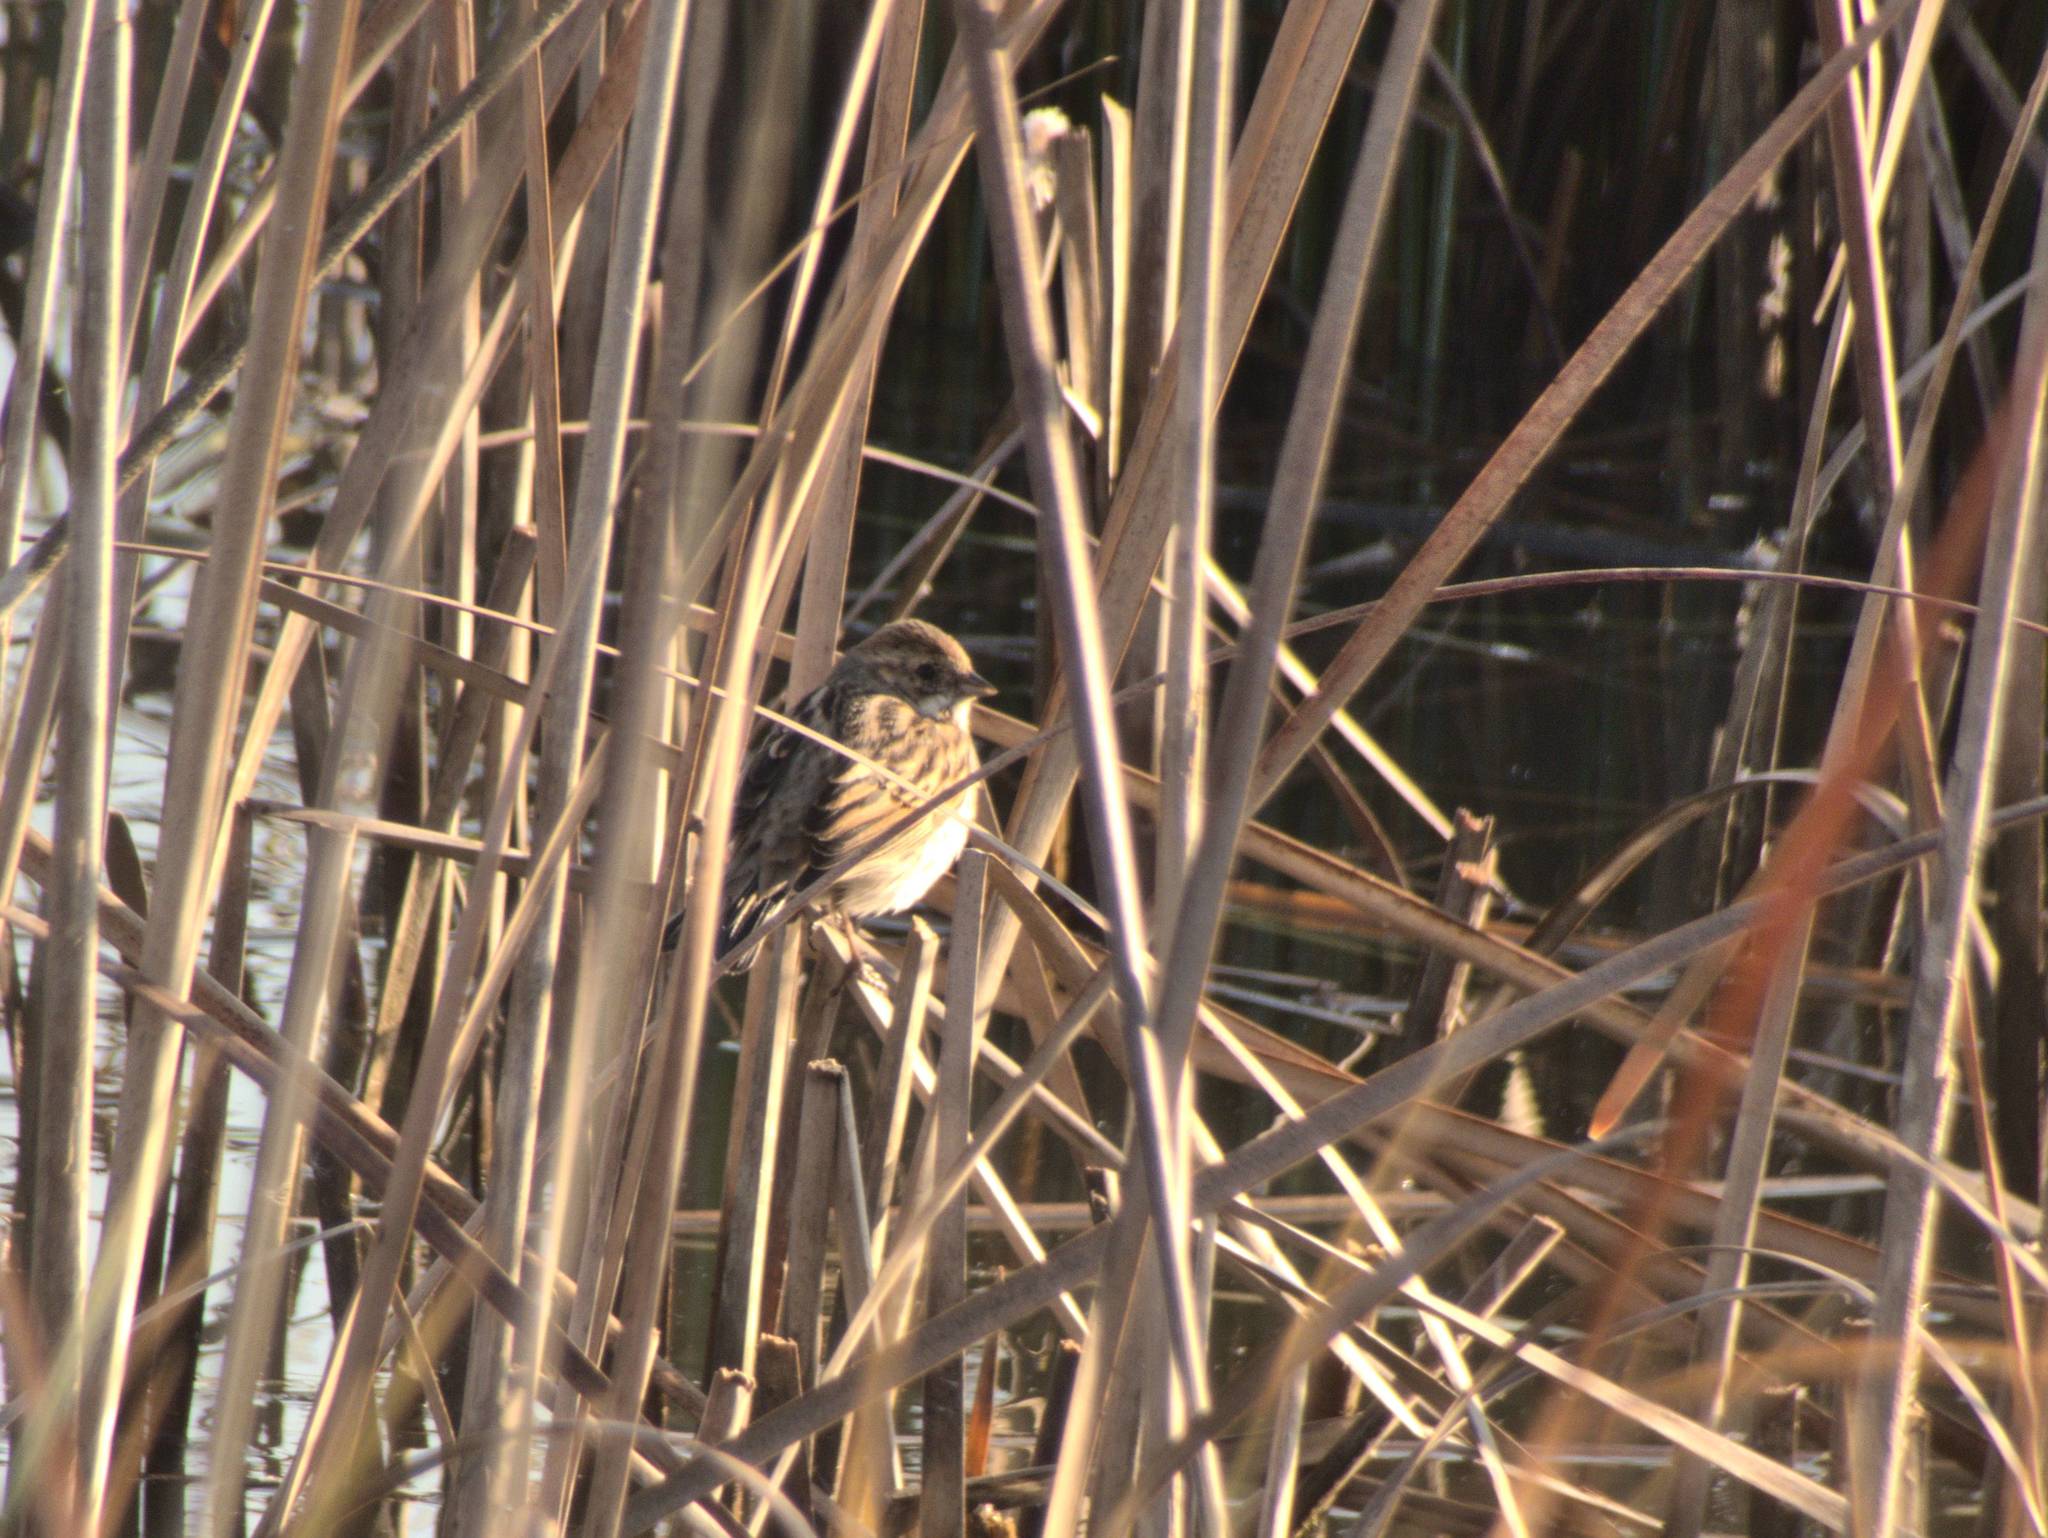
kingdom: Animalia
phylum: Chordata
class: Aves
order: Passeriformes
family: Emberizidae
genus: Emberiza
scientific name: Emberiza schoeniclus
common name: Reed bunting
